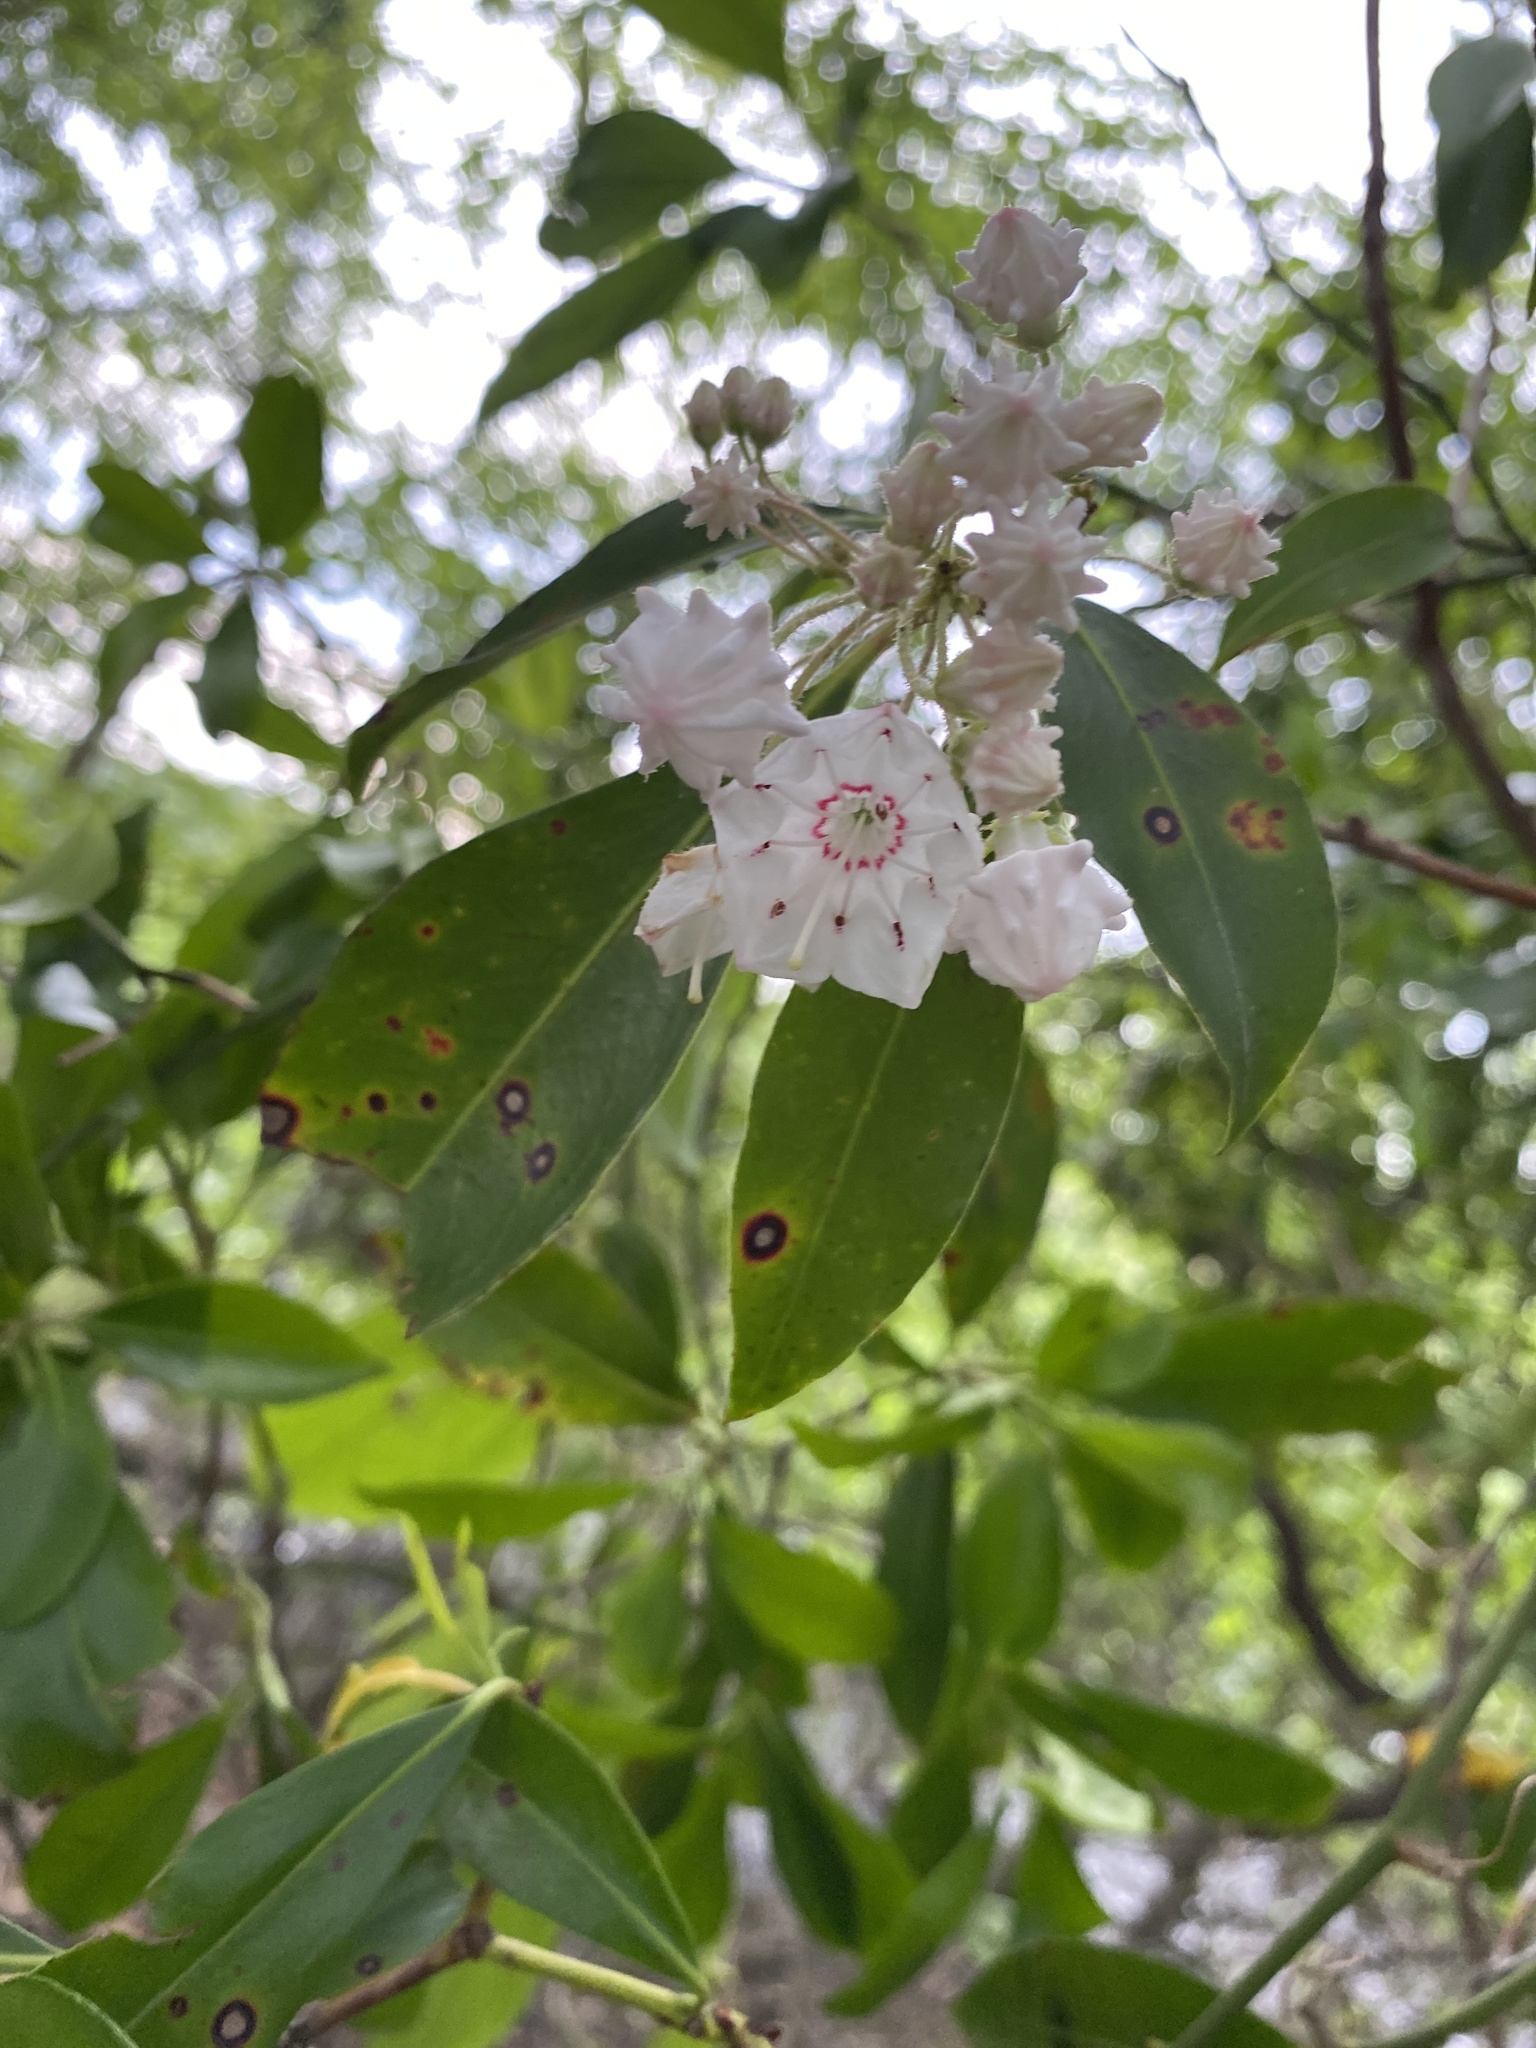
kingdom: Plantae
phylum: Tracheophyta
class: Magnoliopsida
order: Ericales
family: Ericaceae
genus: Kalmia
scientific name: Kalmia latifolia
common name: Mountain-laurel
